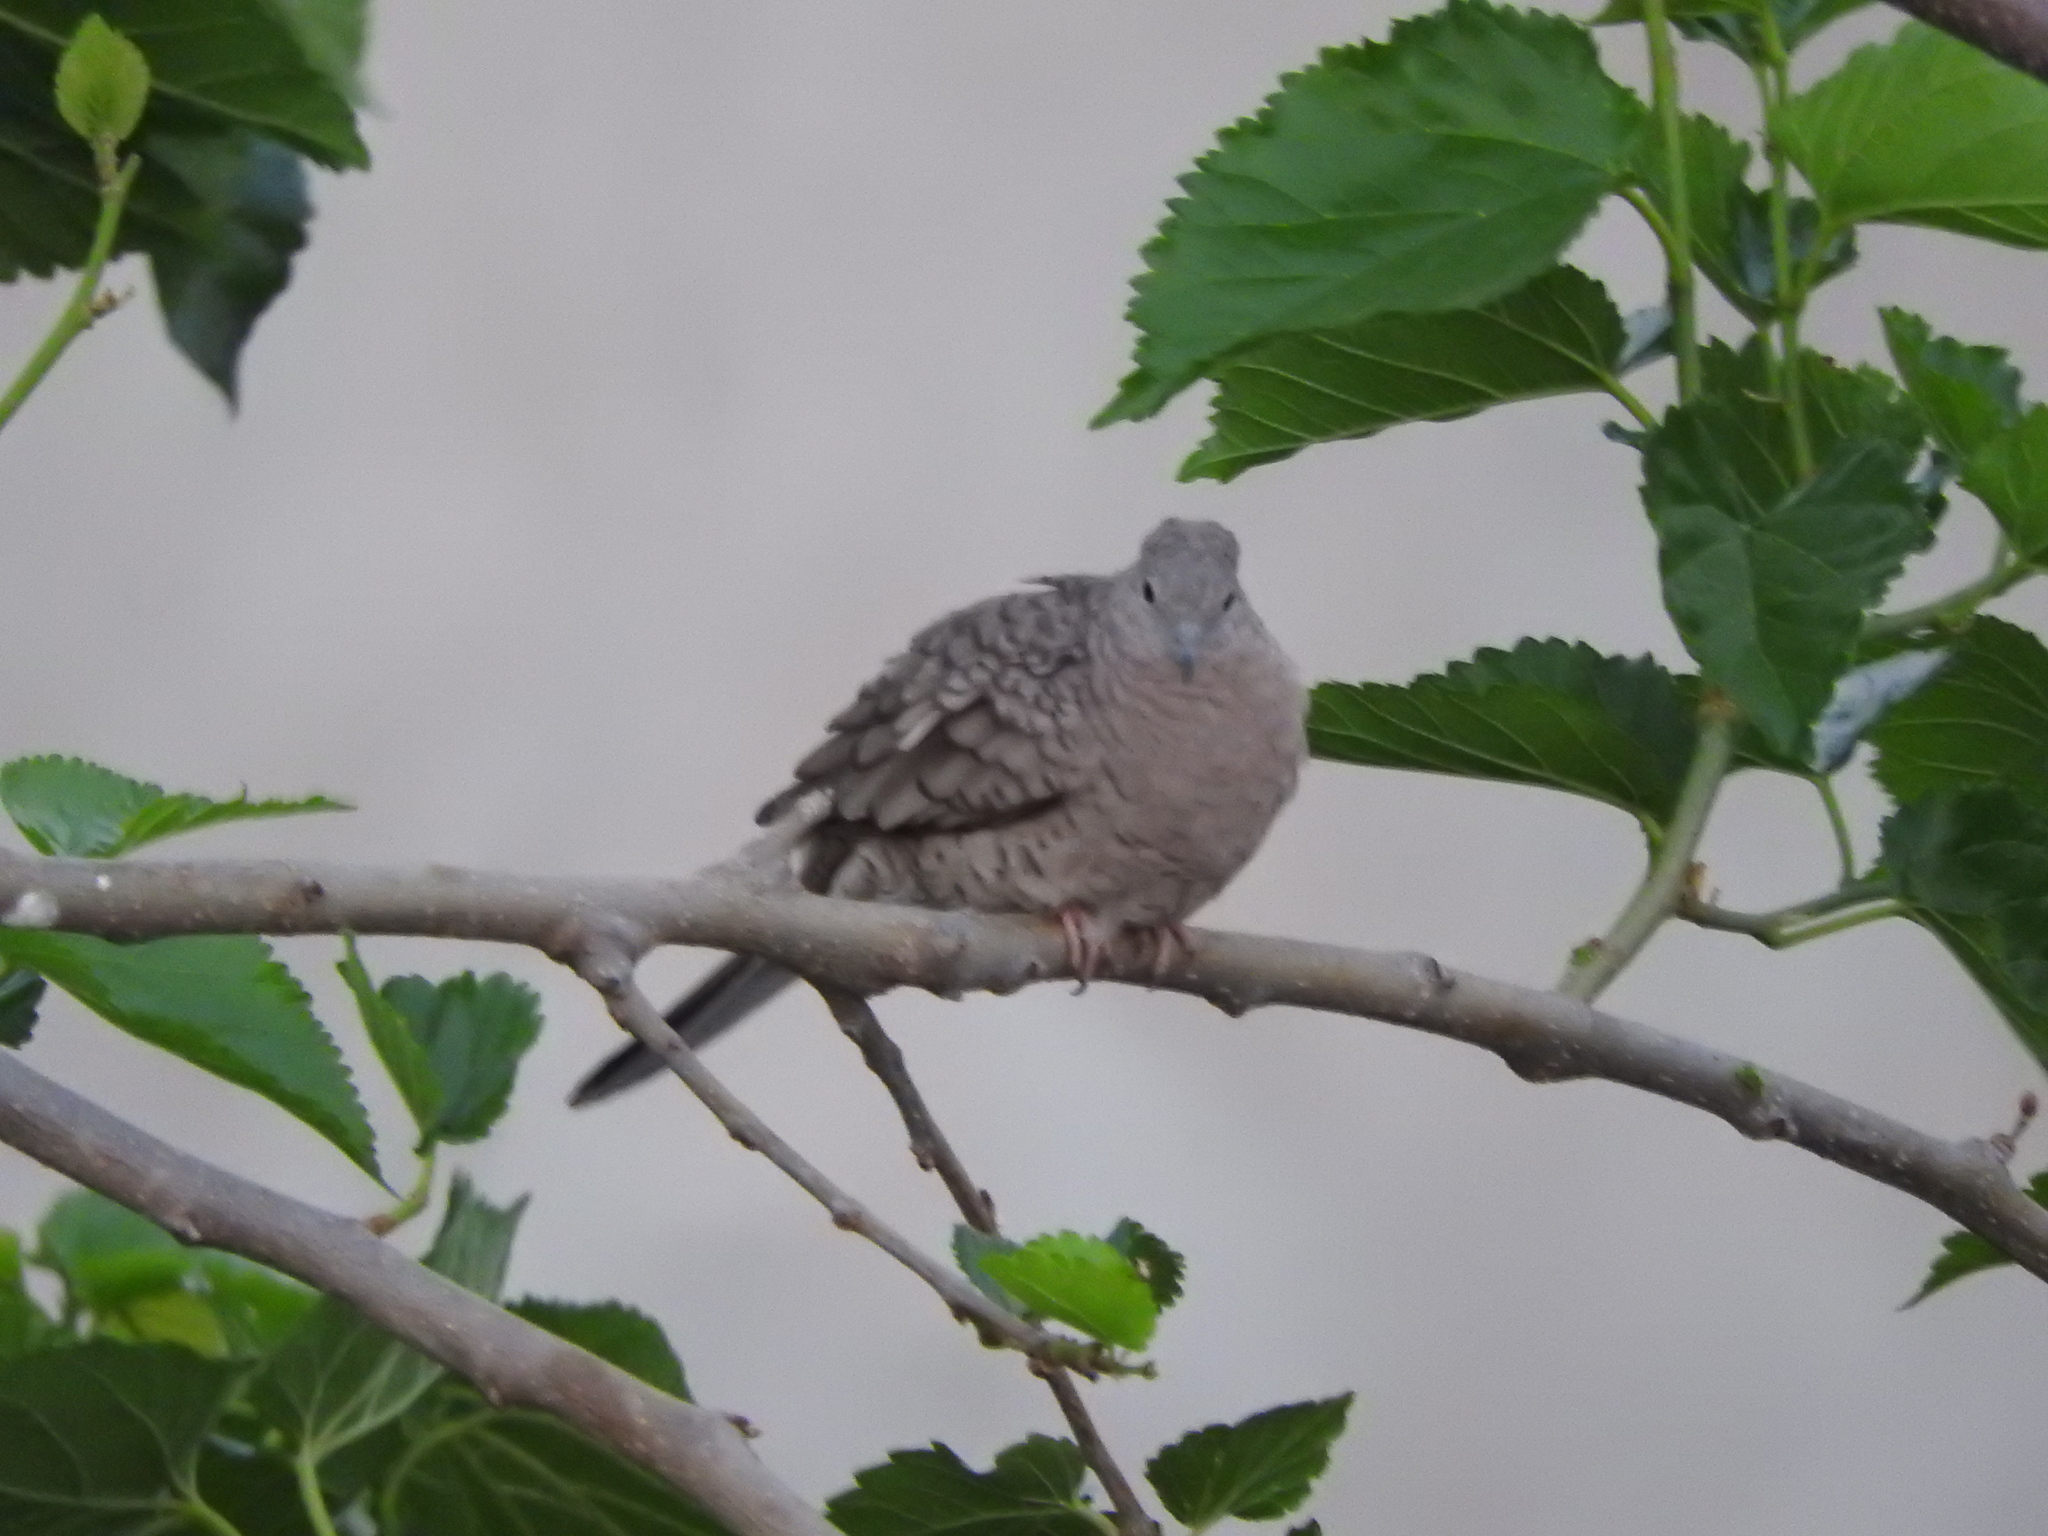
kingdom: Animalia
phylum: Chordata
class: Aves
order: Columbiformes
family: Columbidae
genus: Columbina
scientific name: Columbina inca
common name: Inca dove
